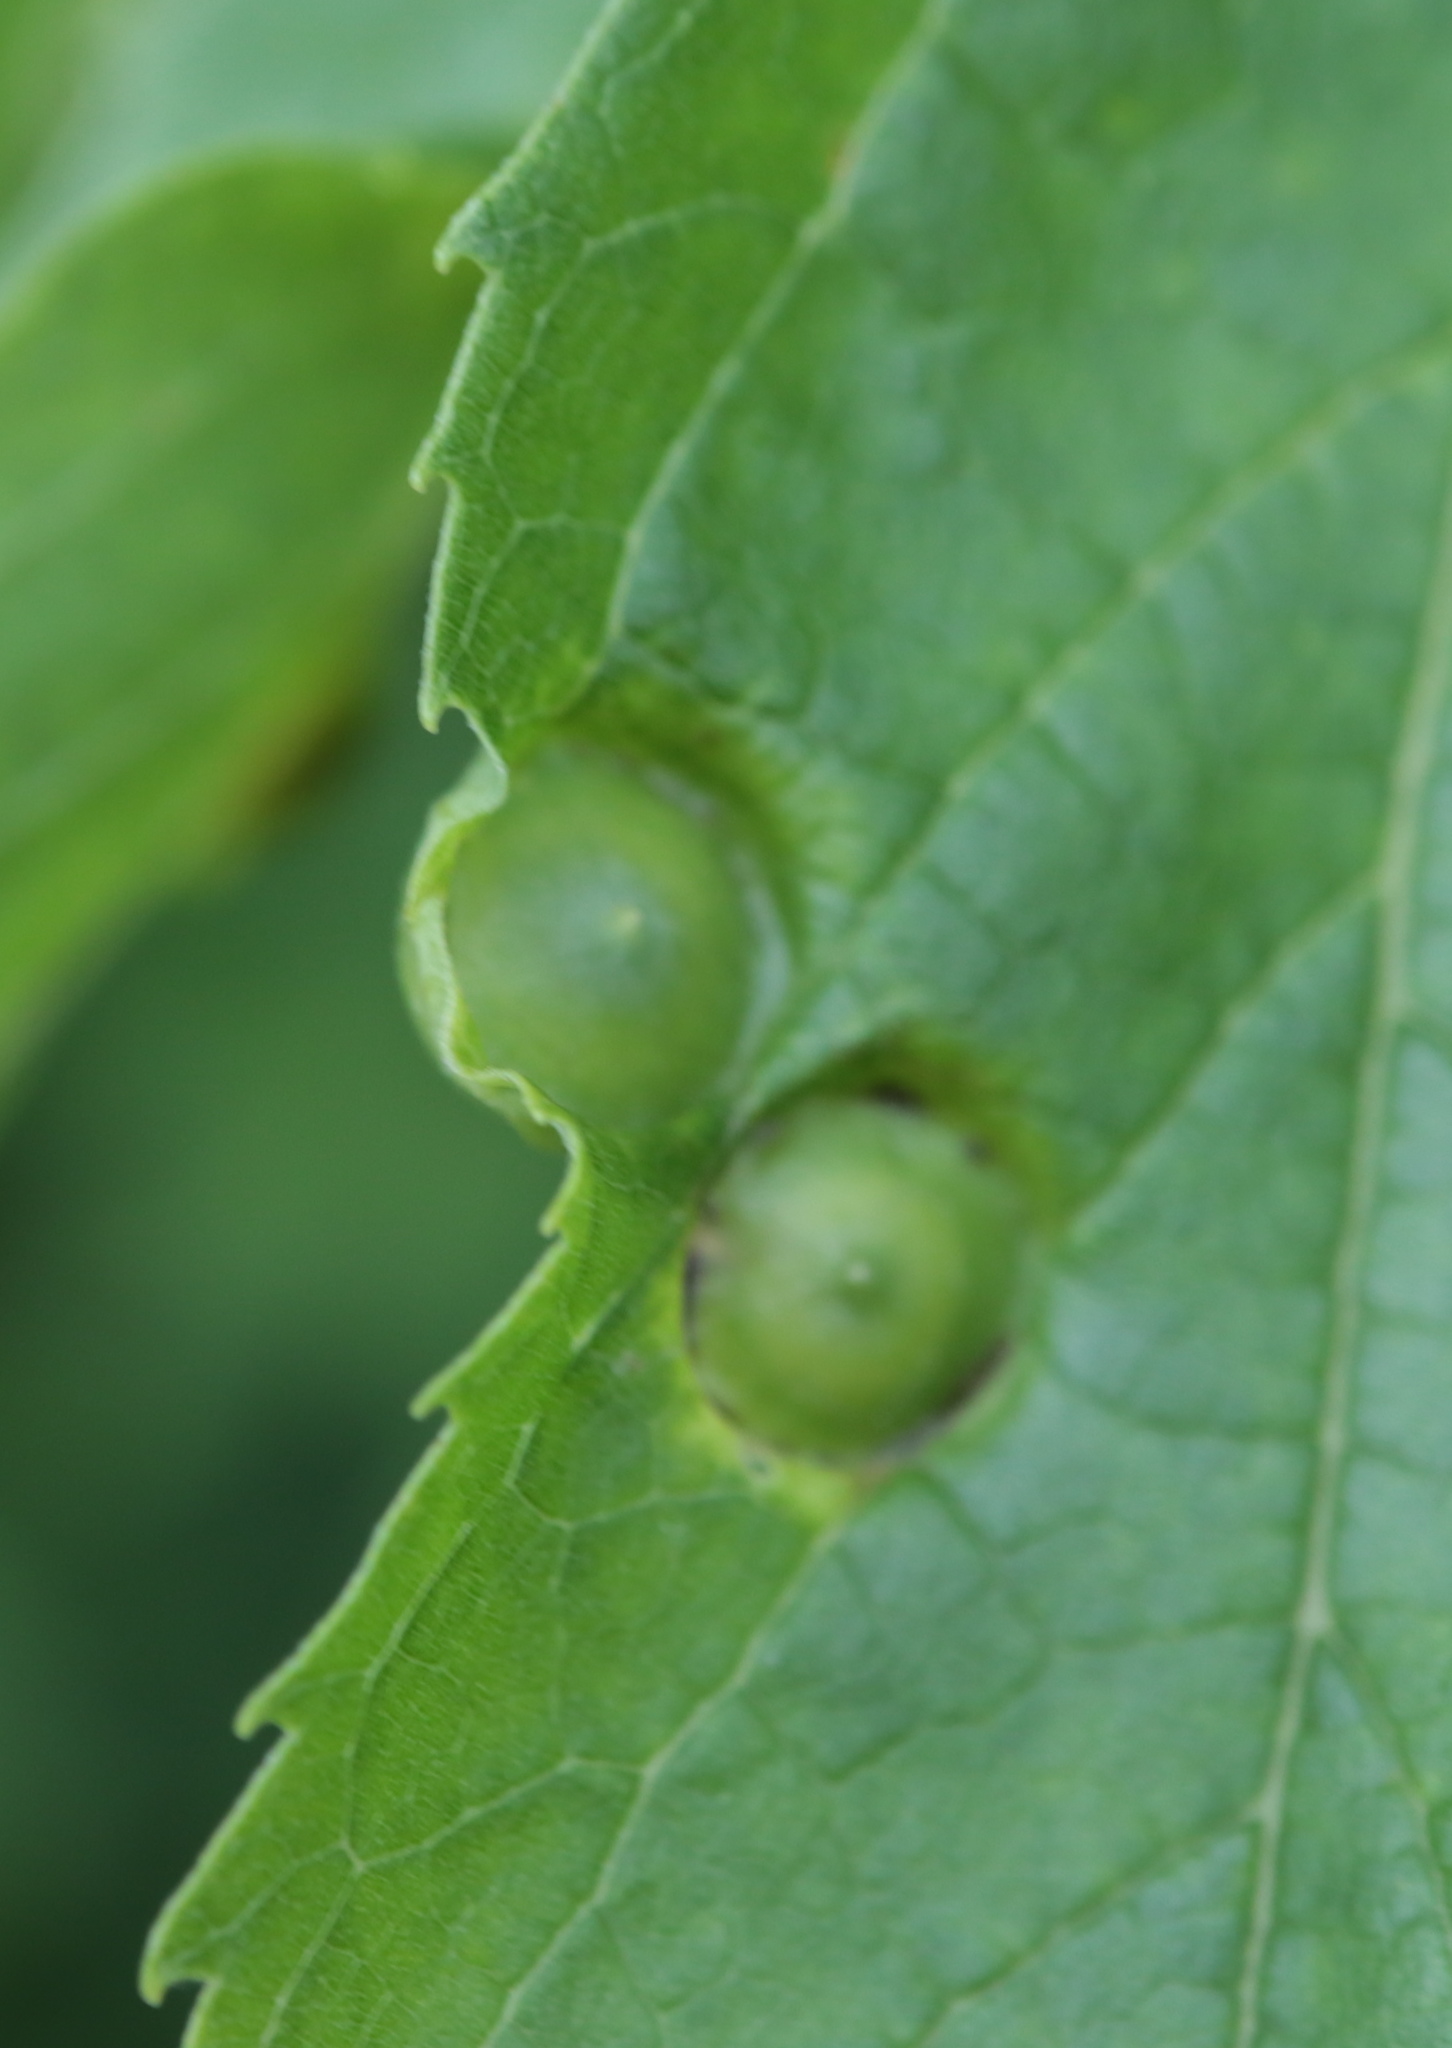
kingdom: Animalia
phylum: Arthropoda
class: Insecta
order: Hemiptera
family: Aphalaridae
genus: Pachypsylla
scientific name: Pachypsylla celtidisumbilicus
